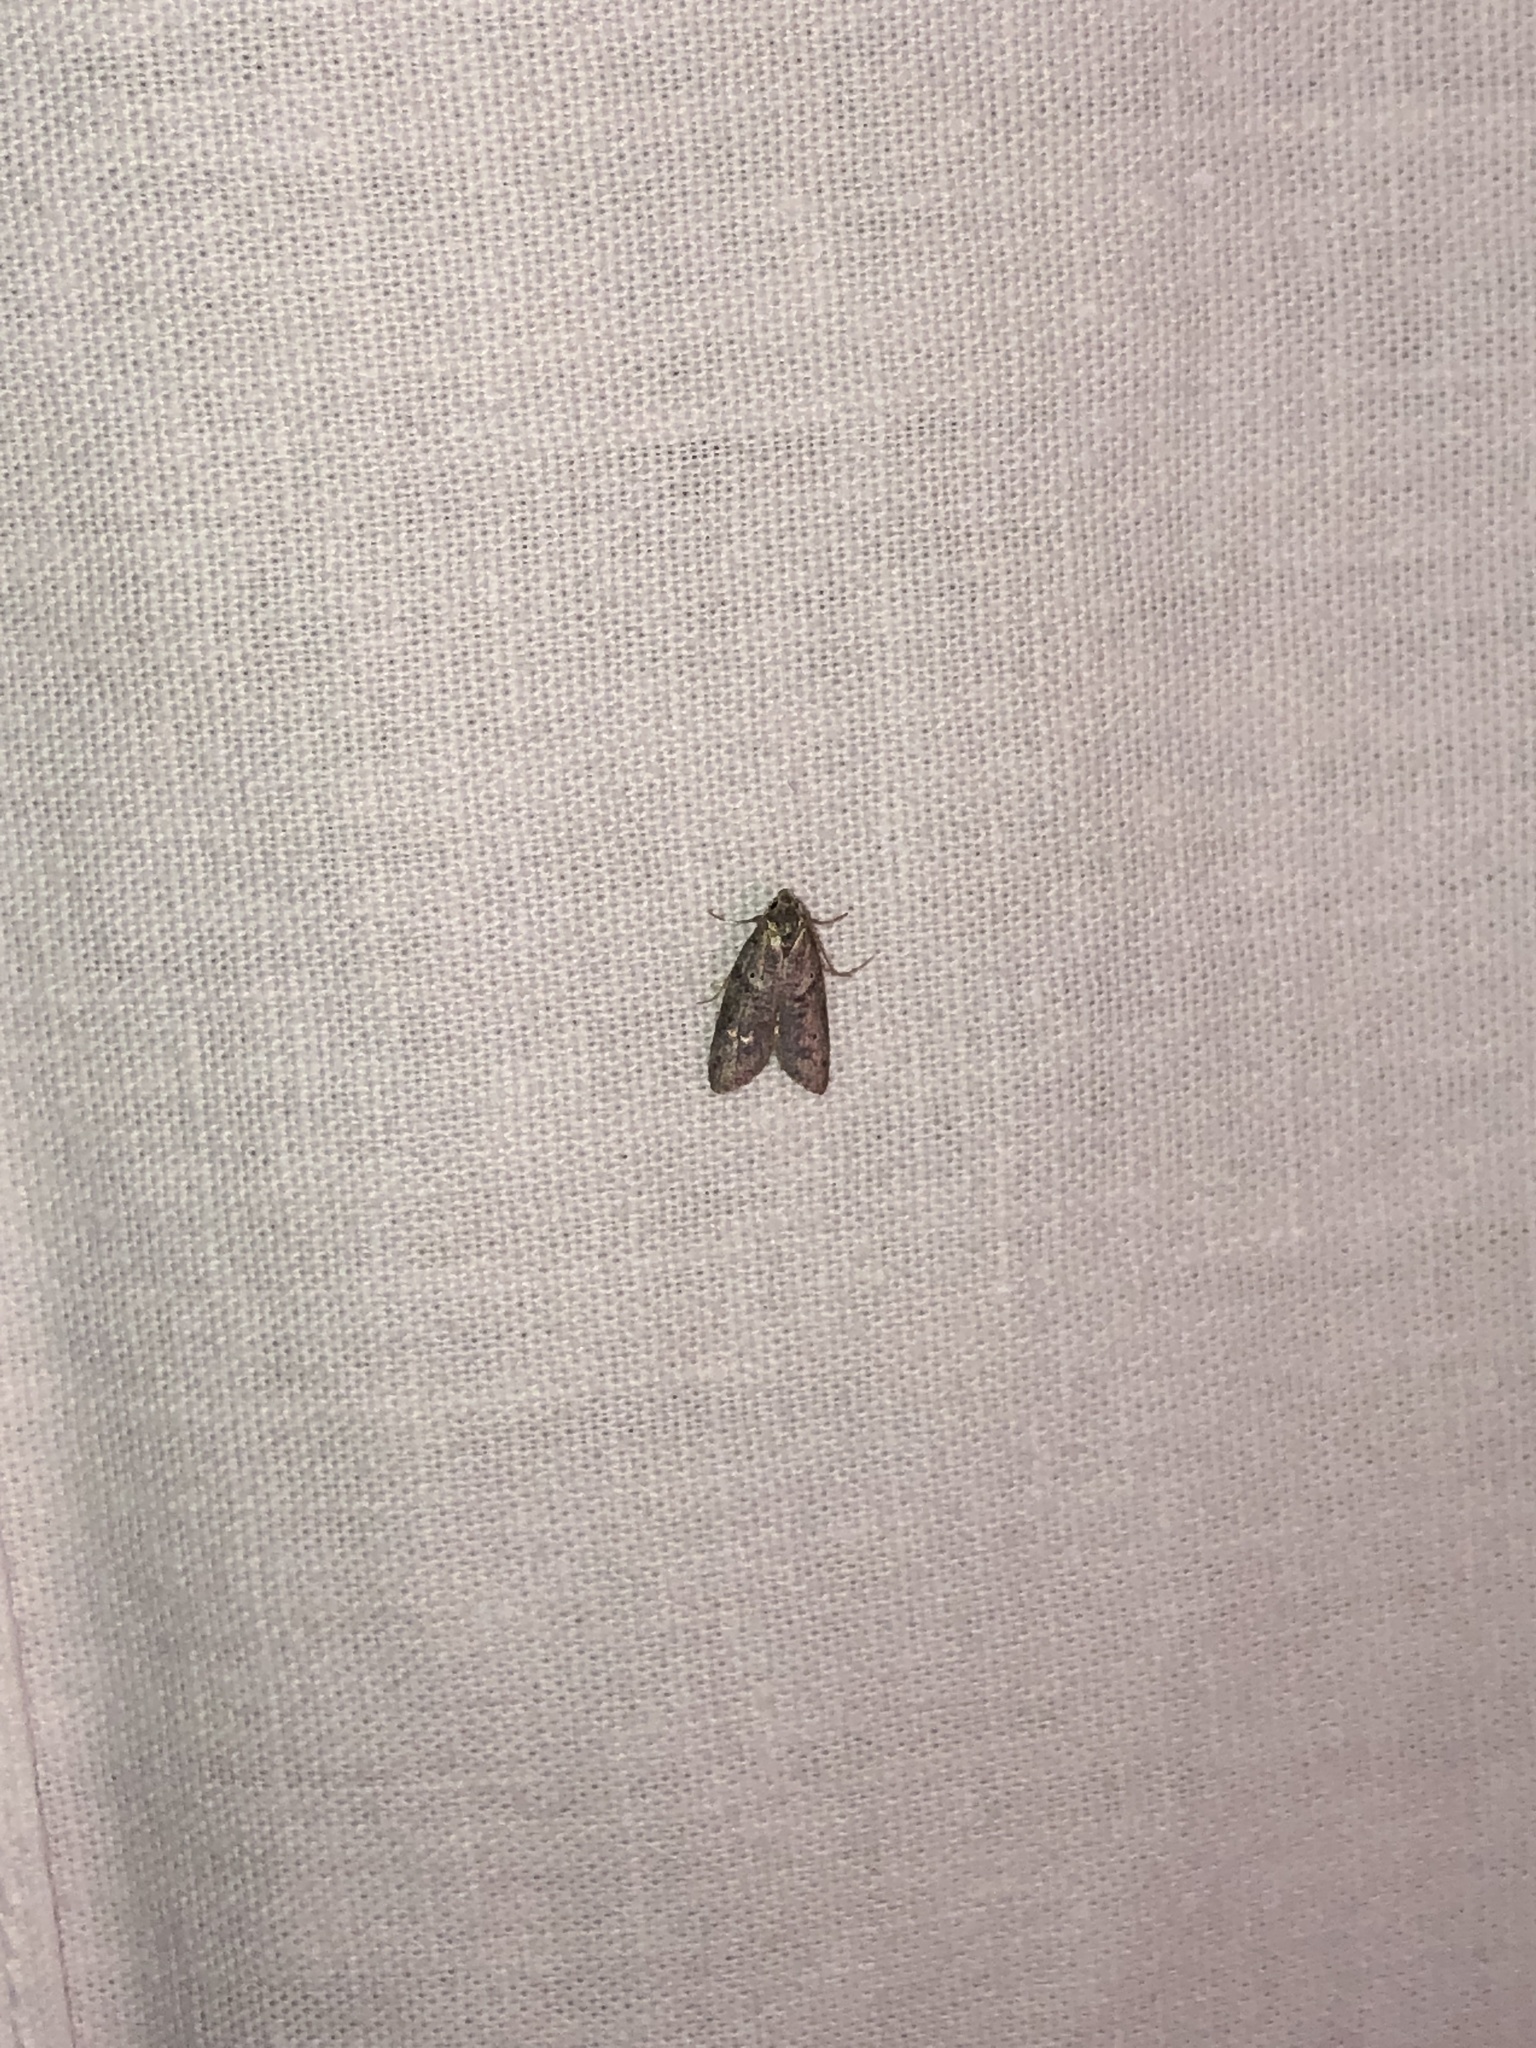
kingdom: Animalia
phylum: Arthropoda
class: Insecta
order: Lepidoptera
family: Copromorphidae
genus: Lotisma
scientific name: Lotisma trigonana
